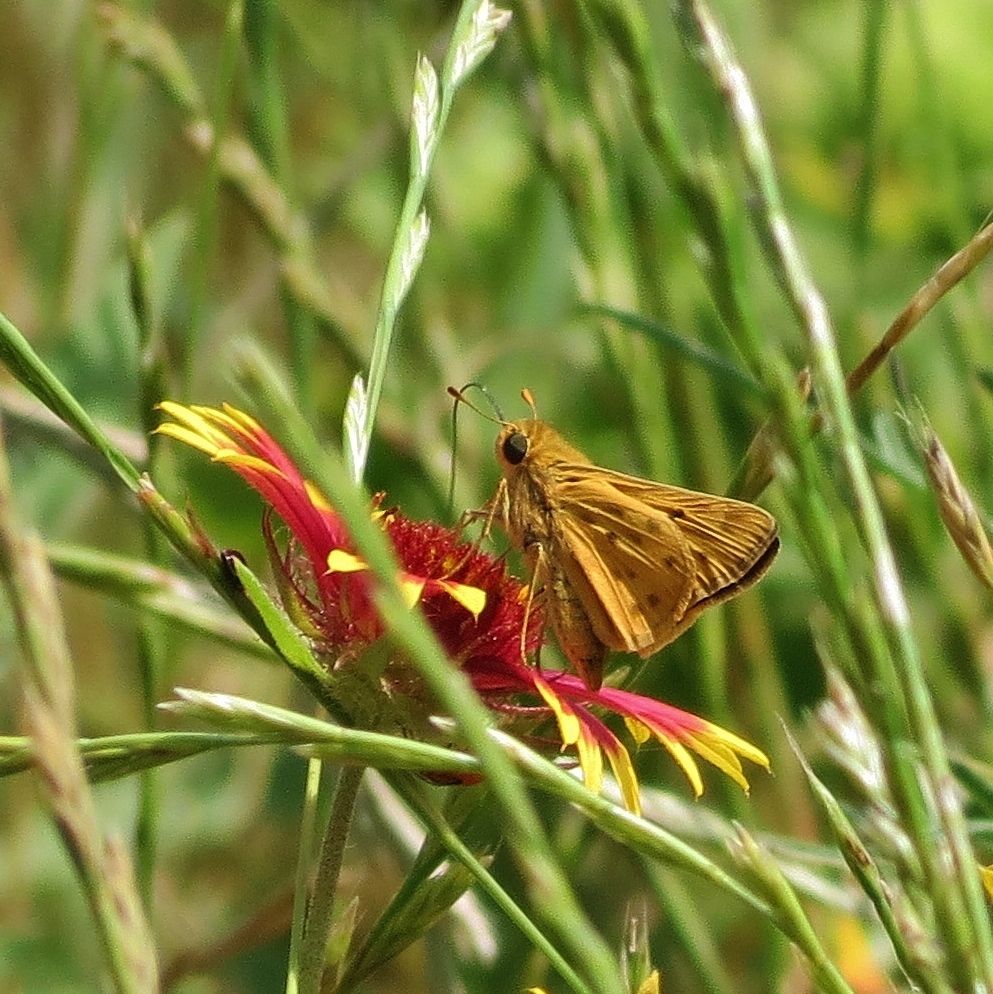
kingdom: Animalia
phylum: Arthropoda
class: Insecta
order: Lepidoptera
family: Hesperiidae
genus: Hylephila
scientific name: Hylephila phyleus
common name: Fiery skipper
